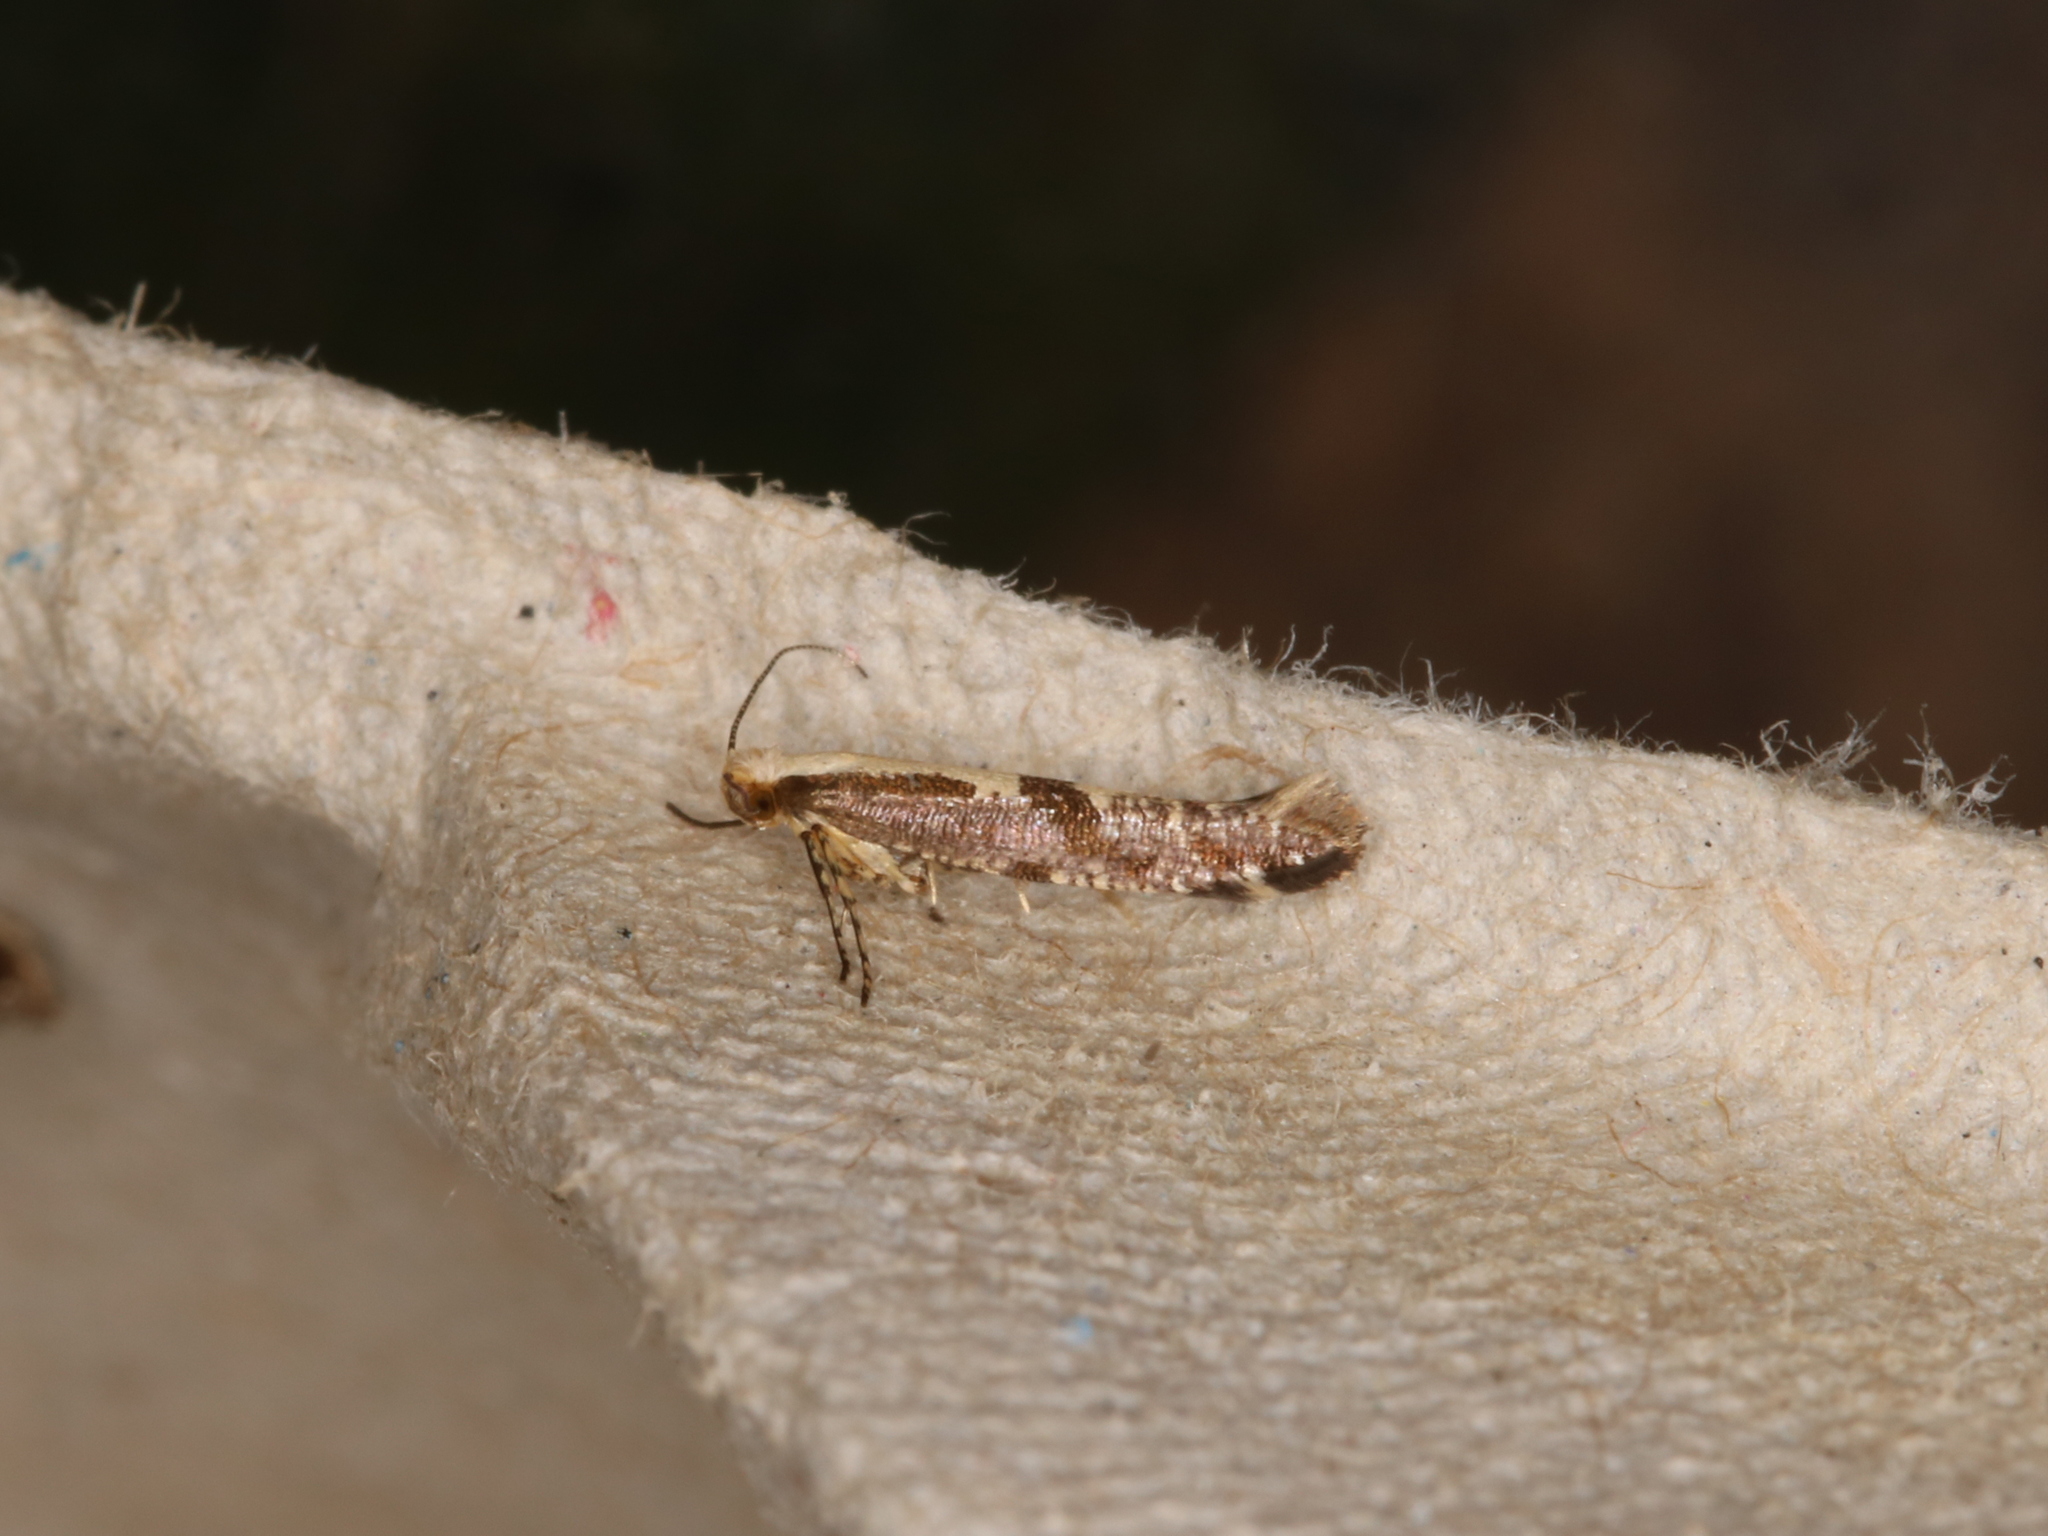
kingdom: Animalia
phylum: Arthropoda
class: Insecta
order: Lepidoptera
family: Argyresthiidae
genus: Argyresthia
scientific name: Argyresthia conjugella
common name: Apple fruit moth
